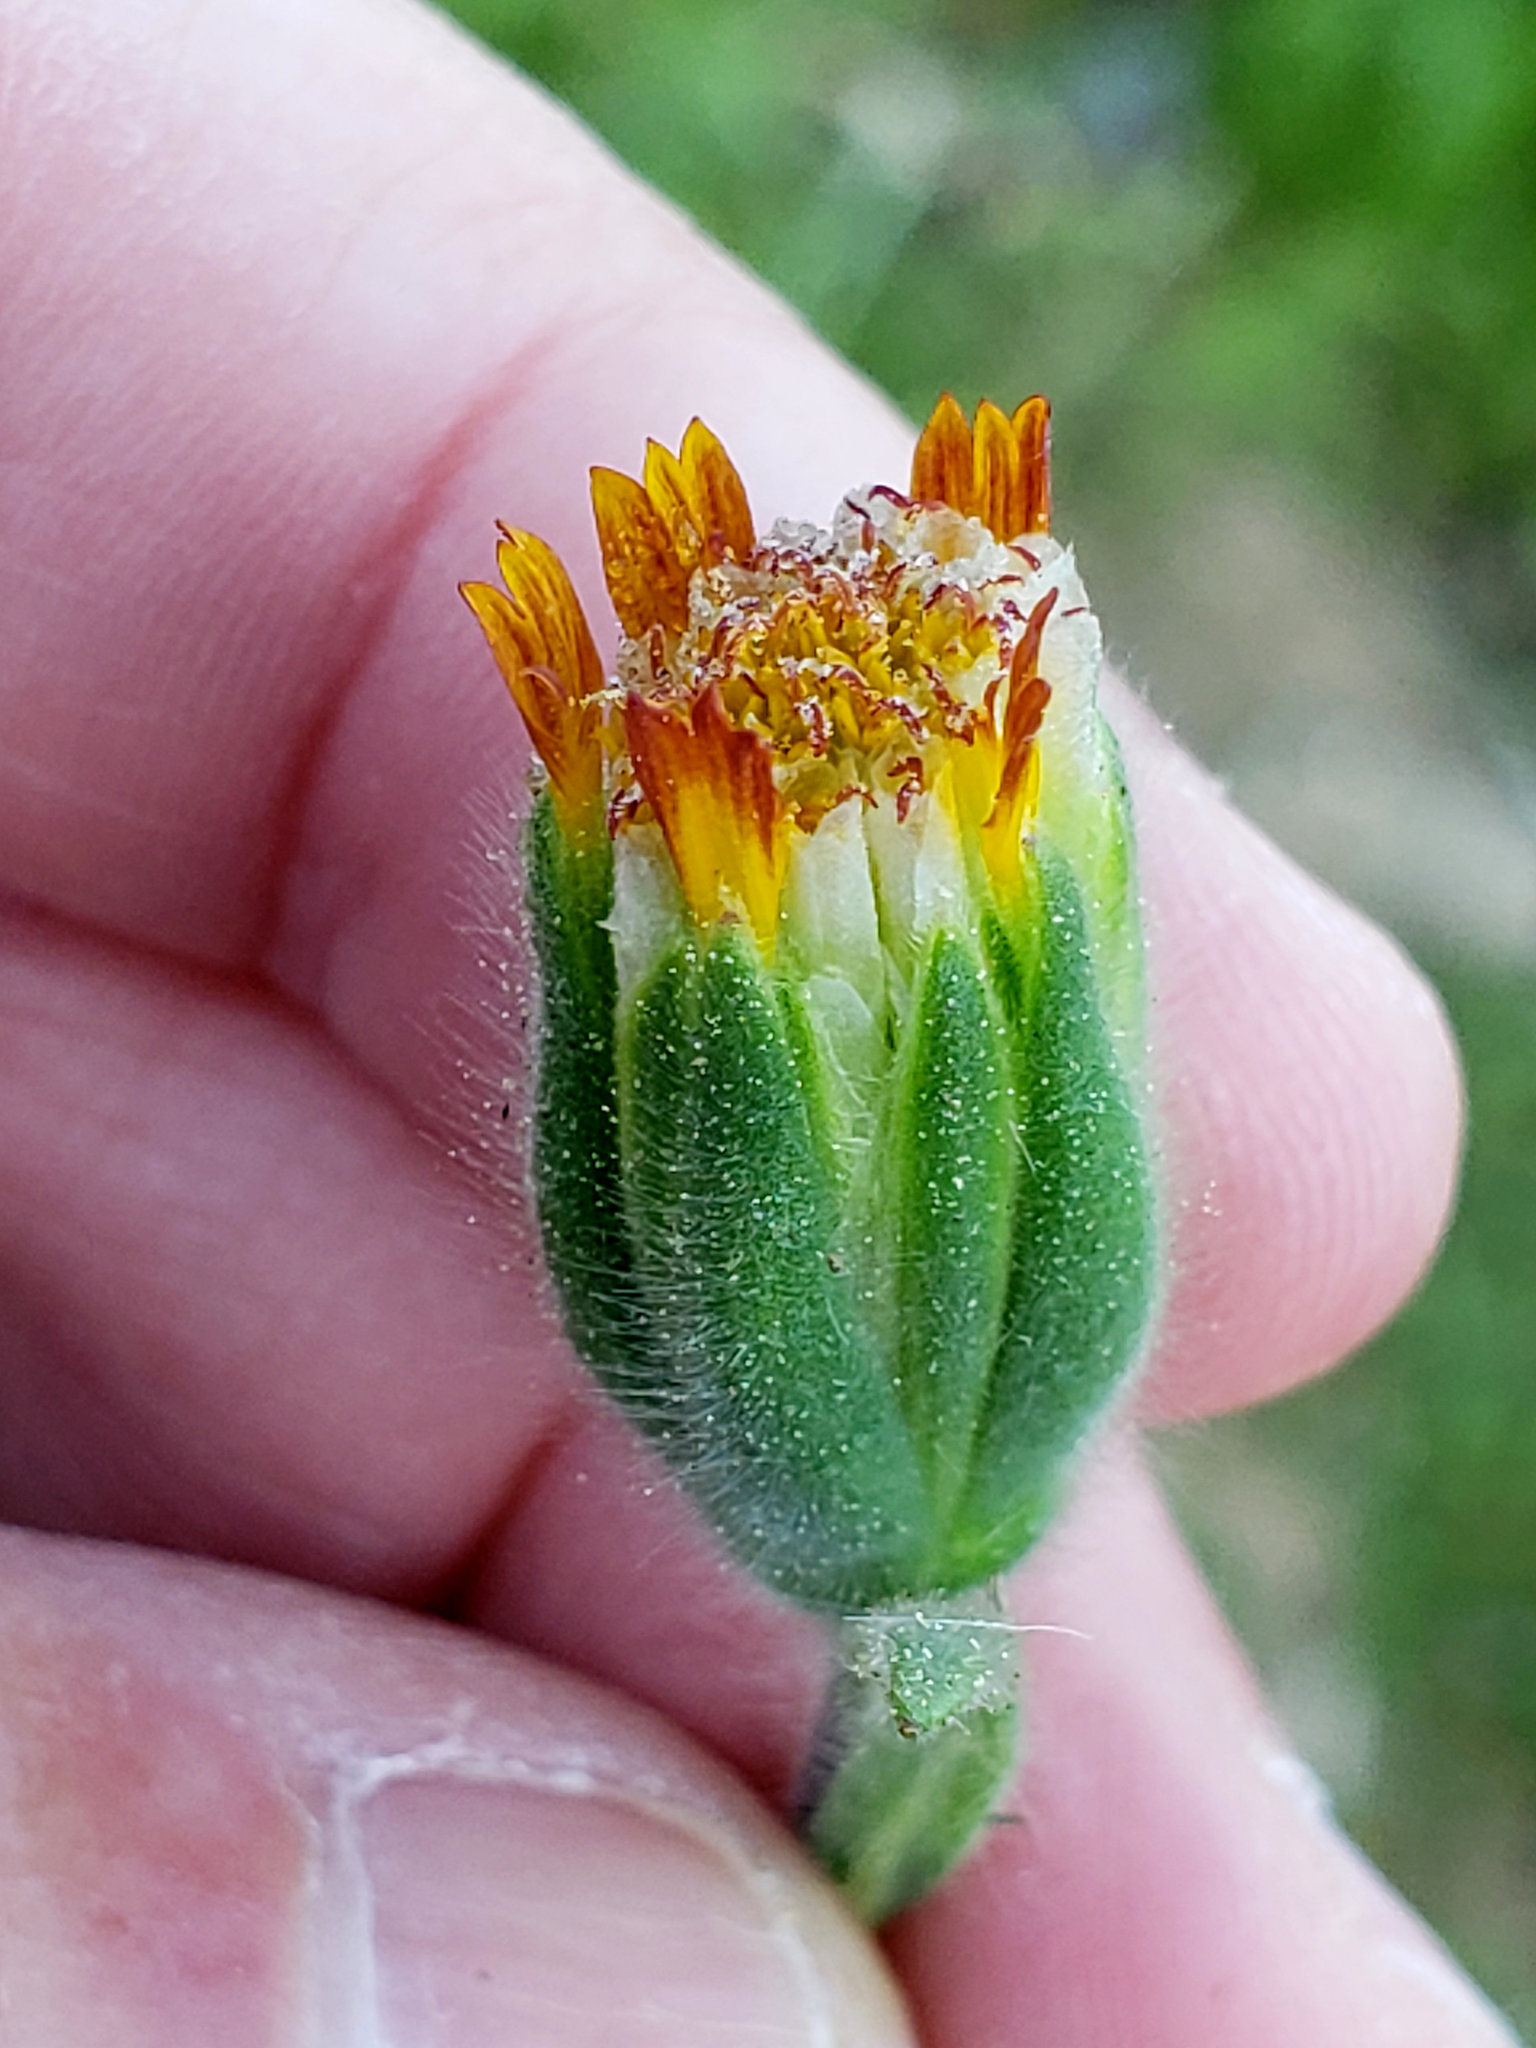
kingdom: Plantae
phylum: Tracheophyta
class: Magnoliopsida
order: Asterales
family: Asteraceae
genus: Achyrachaena
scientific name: Achyrachaena mollis
